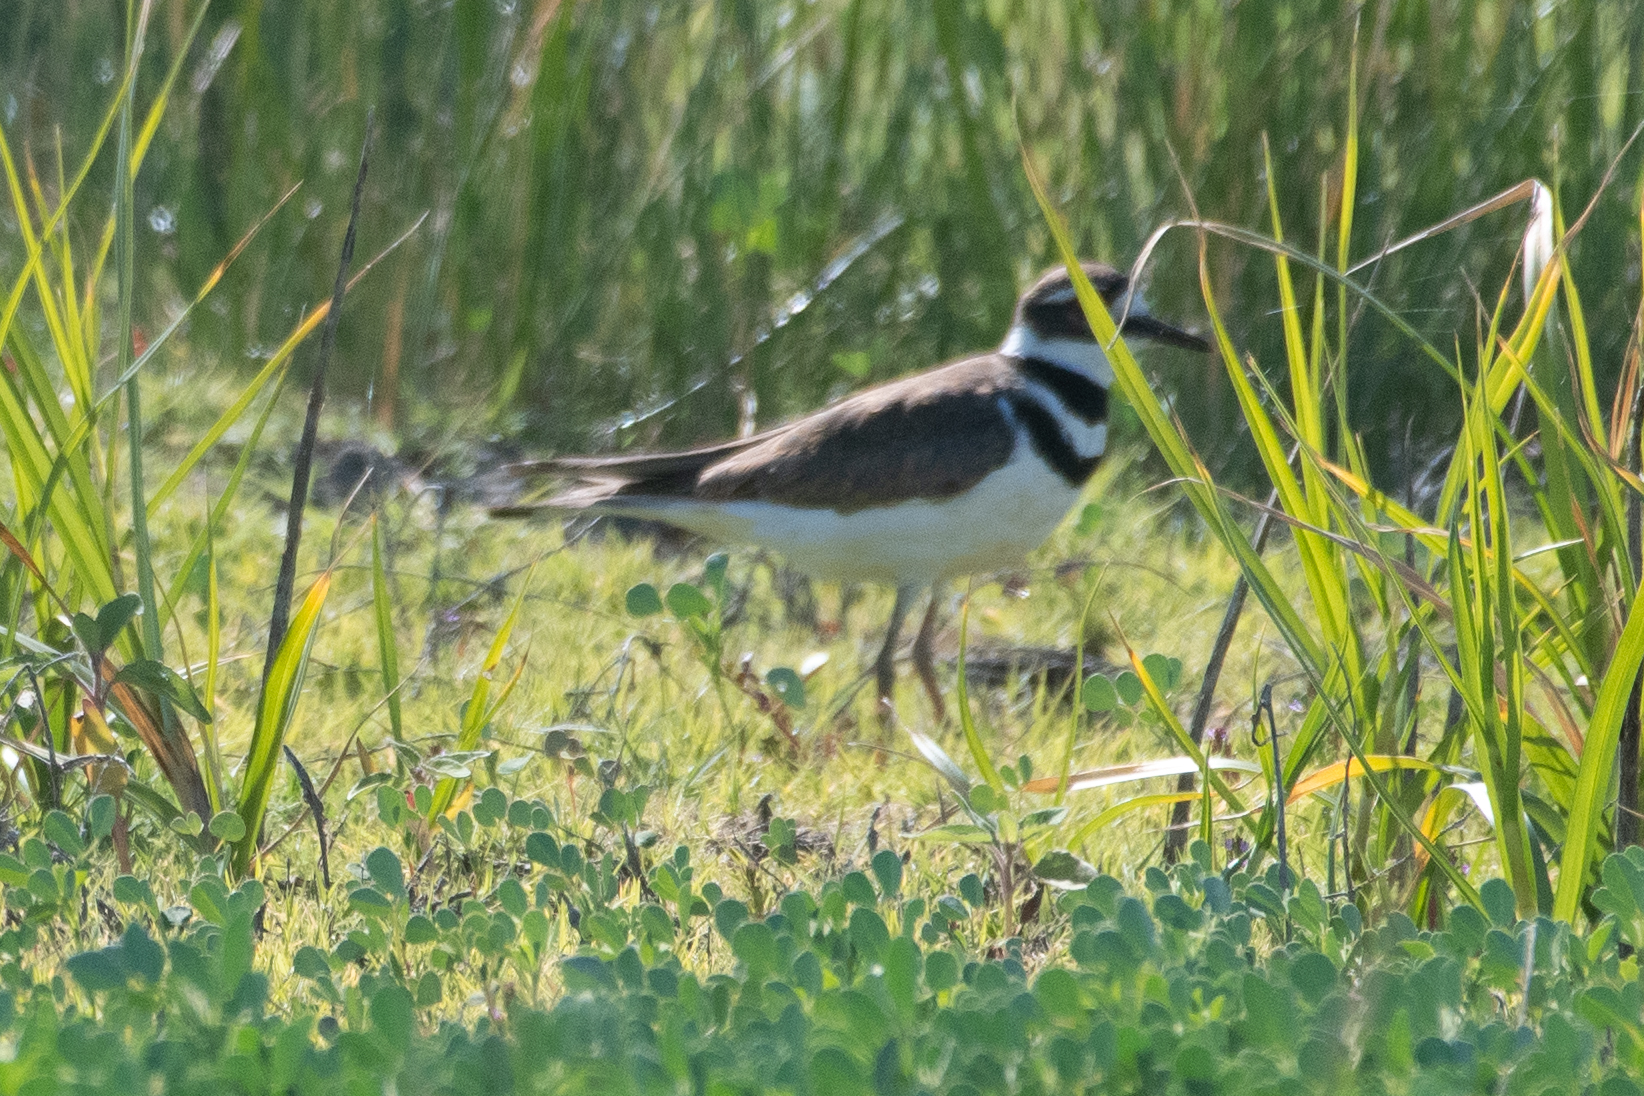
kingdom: Animalia
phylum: Chordata
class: Aves
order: Charadriiformes
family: Charadriidae
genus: Charadrius
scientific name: Charadrius vociferus
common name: Killdeer
